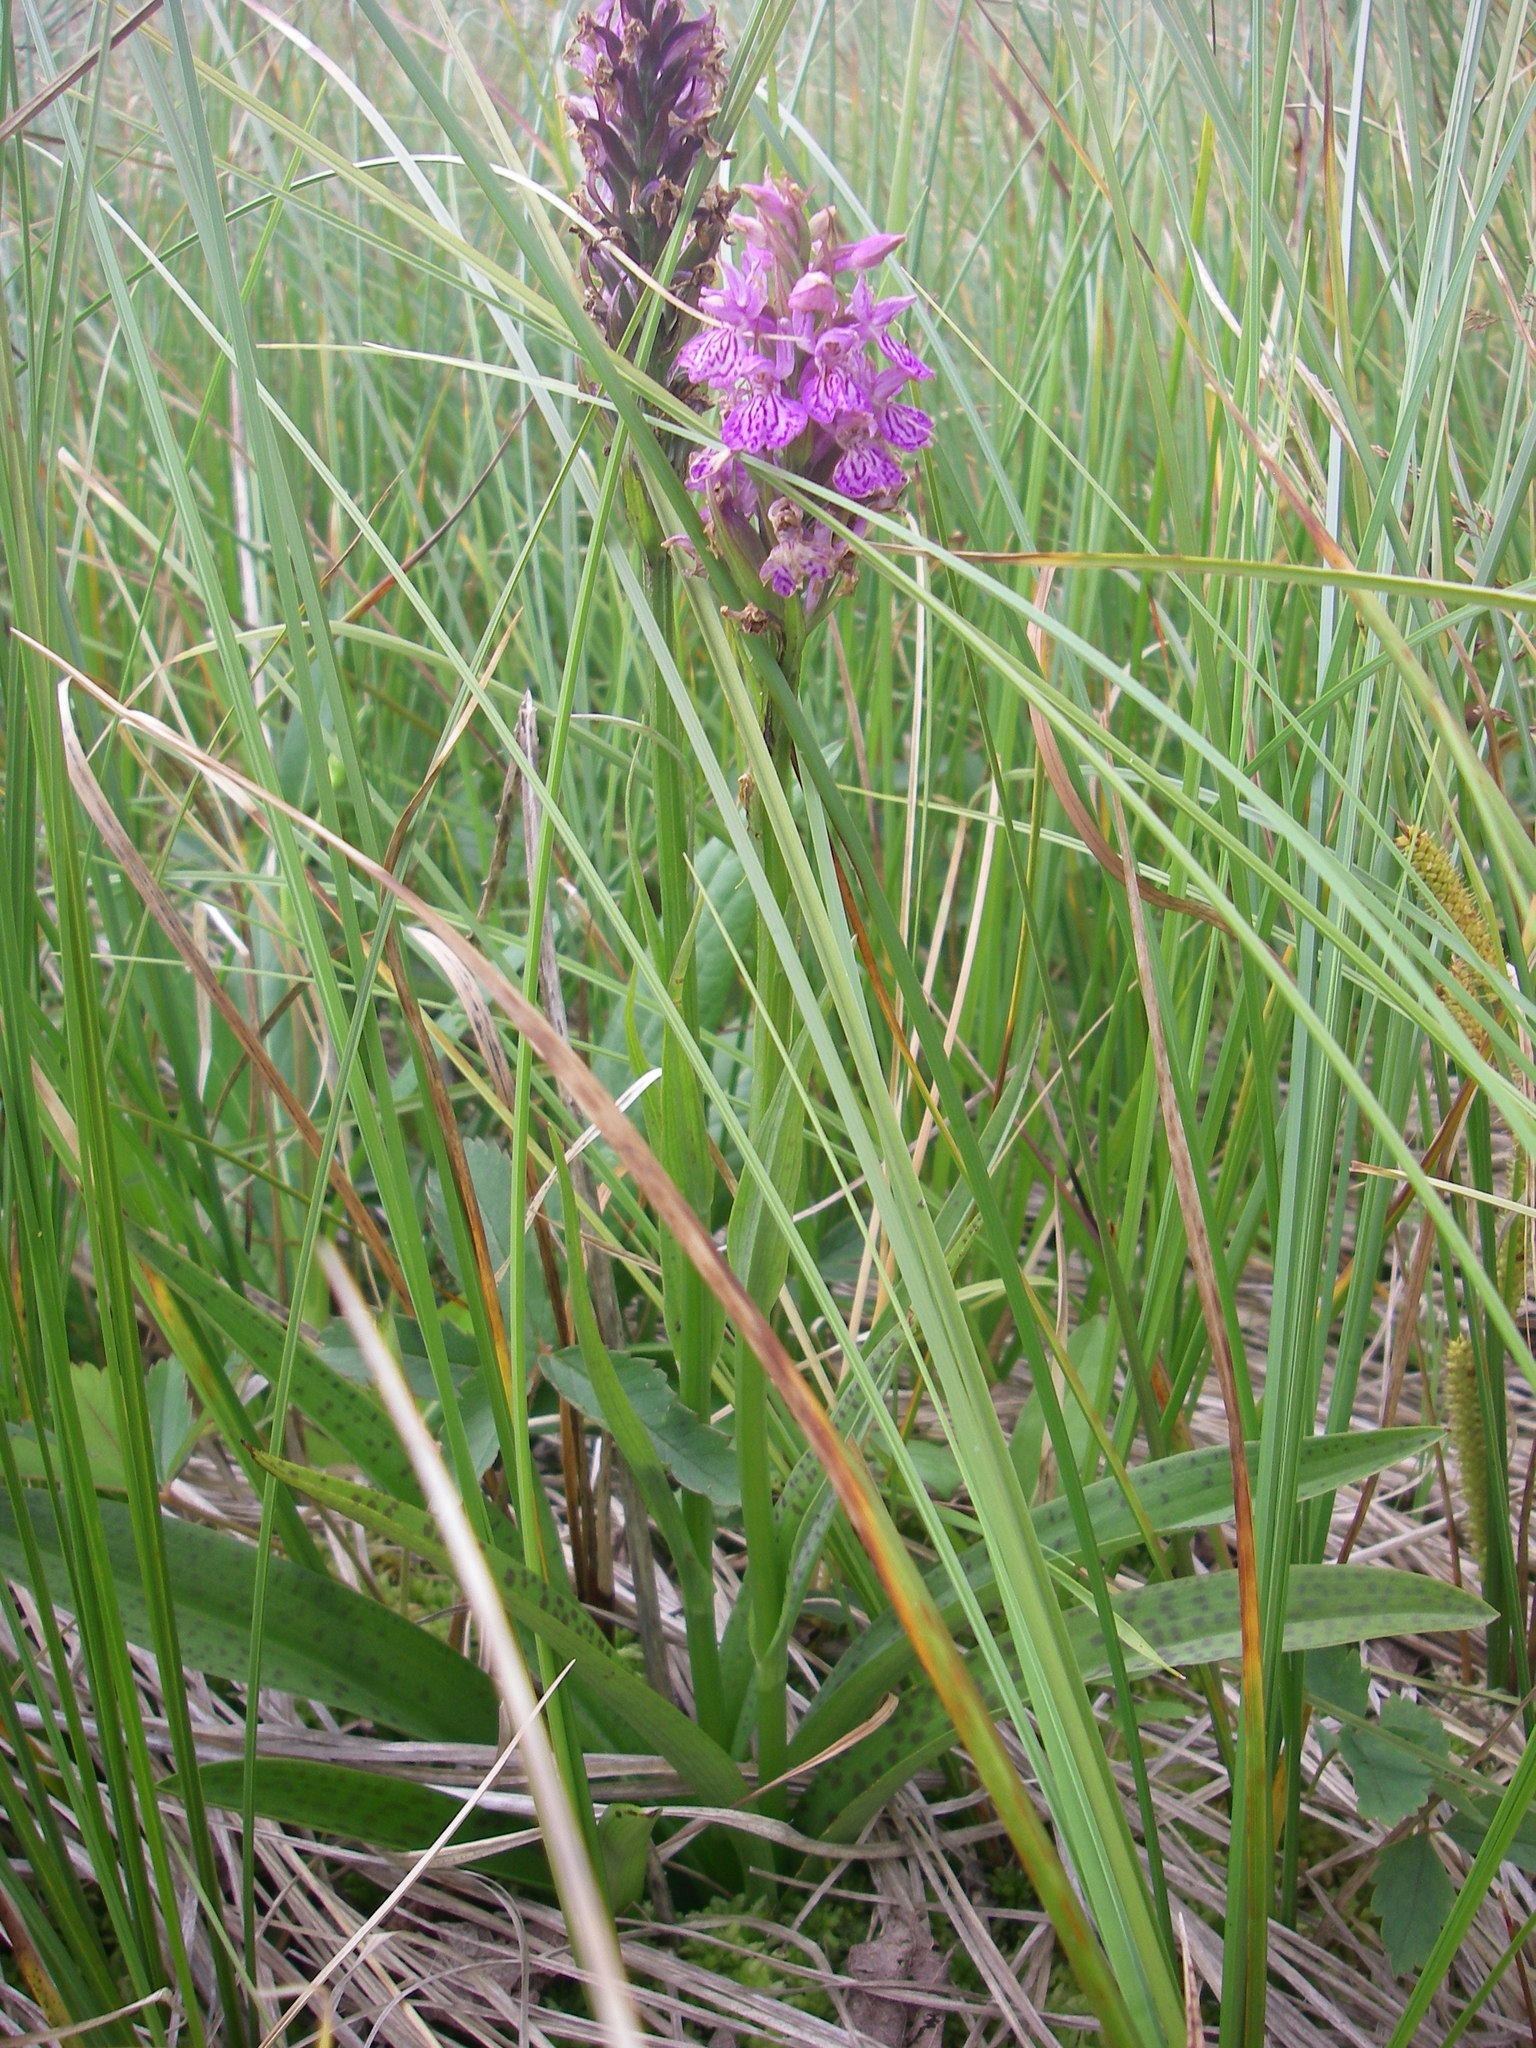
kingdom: Plantae
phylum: Tracheophyta
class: Liliopsida
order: Asparagales
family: Orchidaceae
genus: Dactylorhiza
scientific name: Dactylorhiza maculata
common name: Heath spotted-orchid
